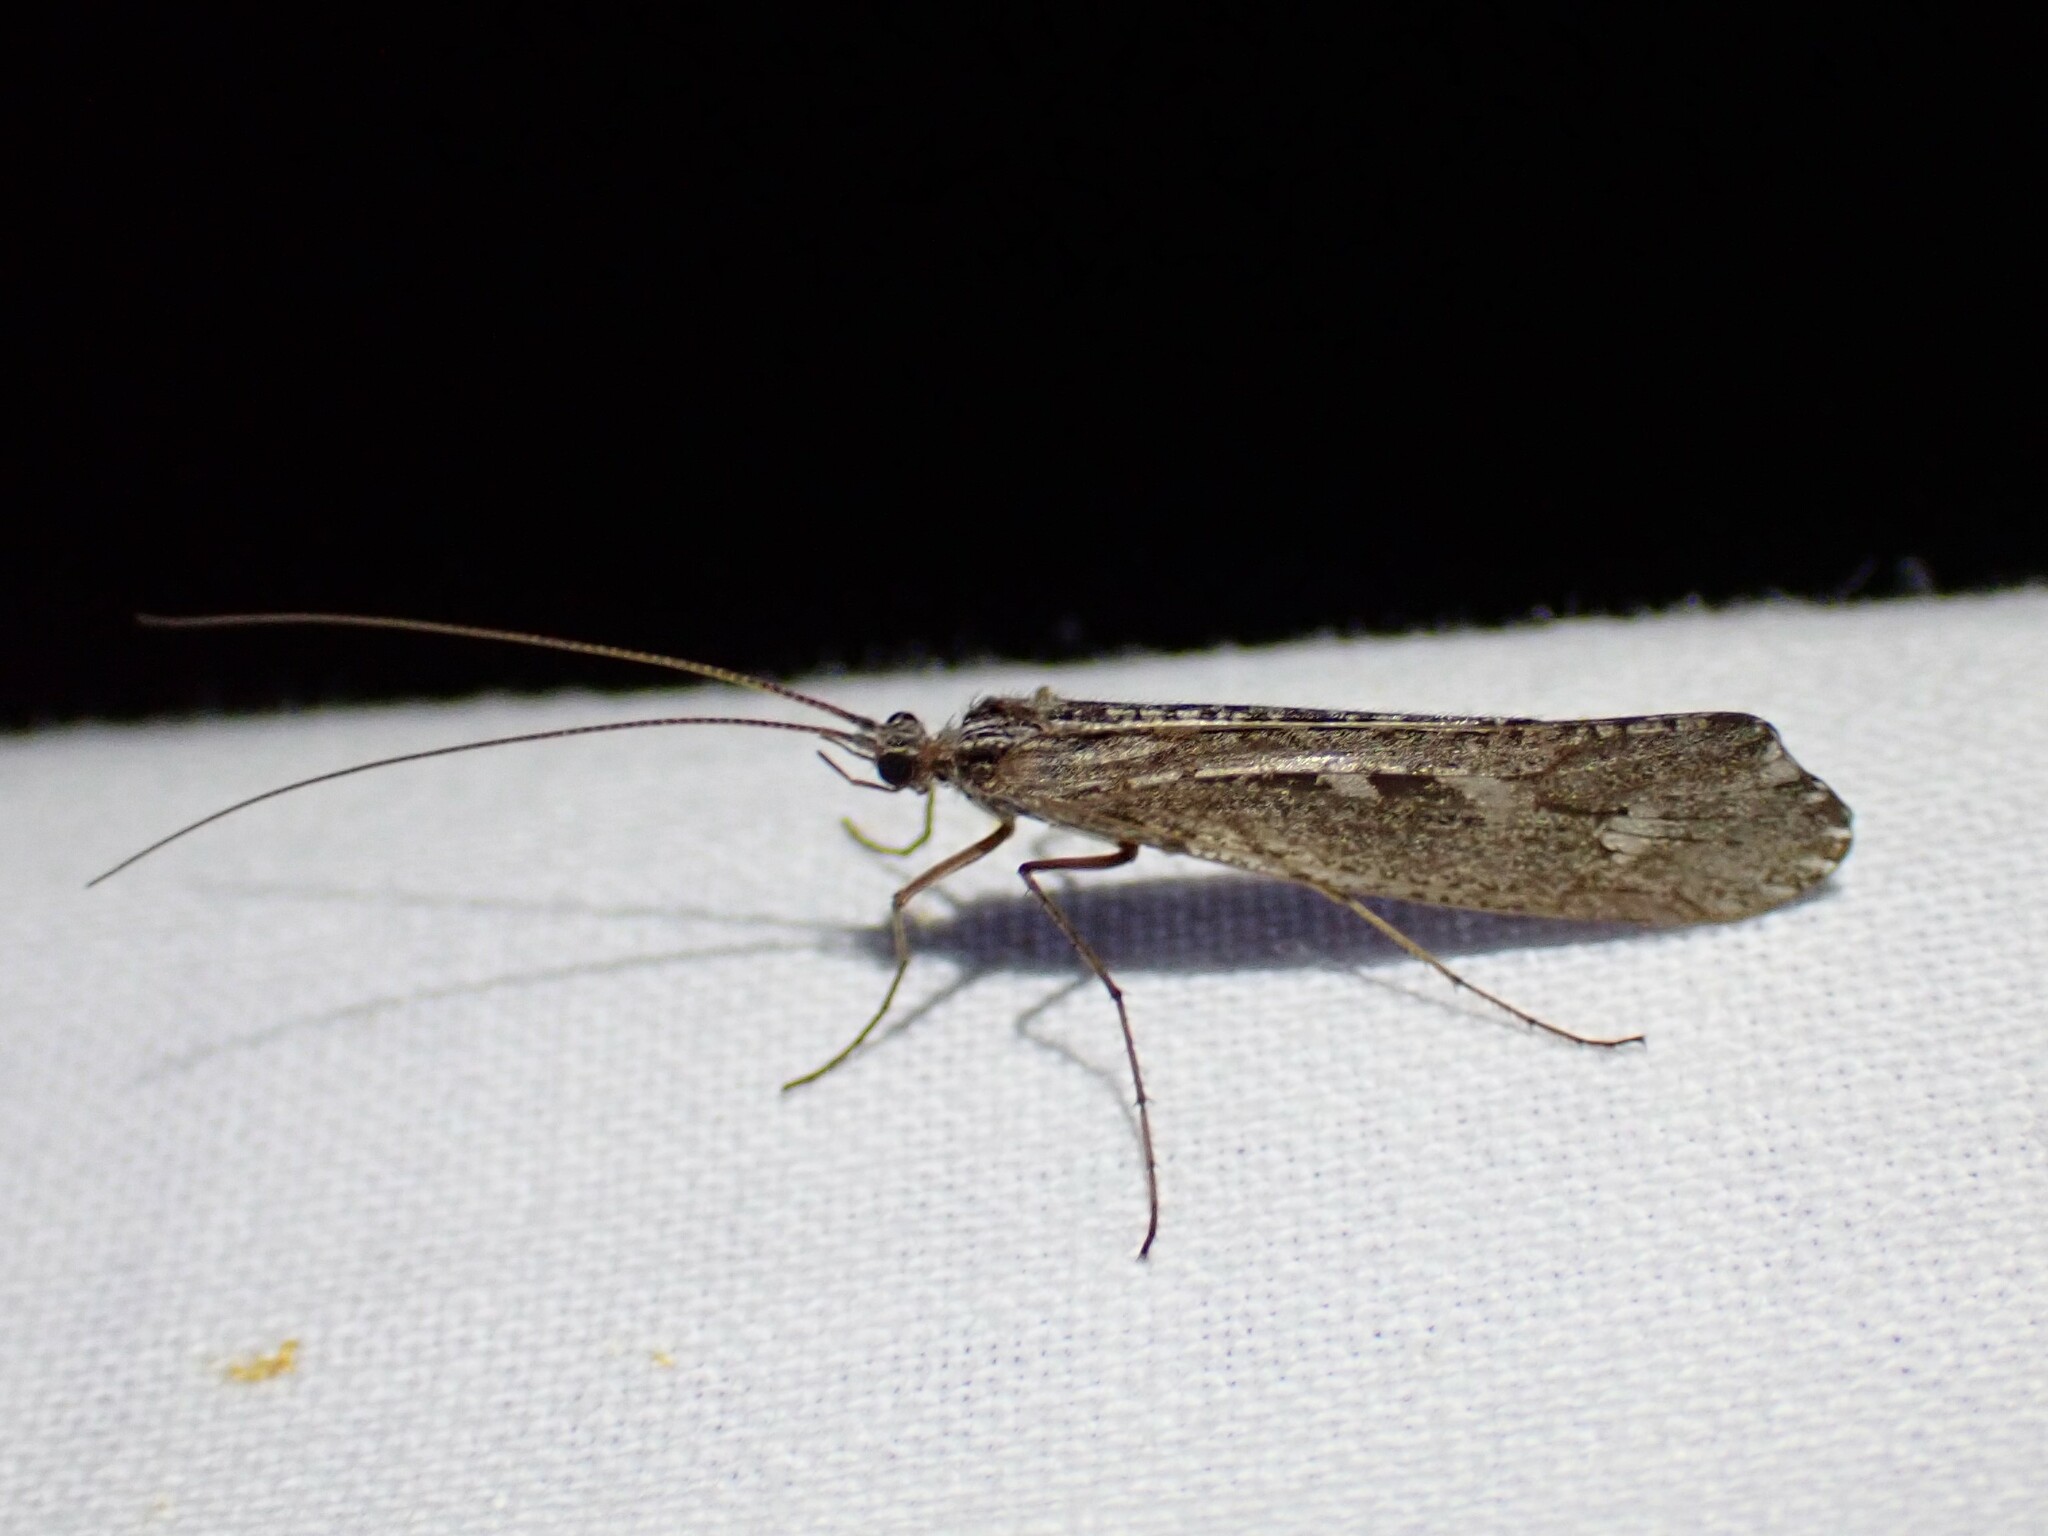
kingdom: Animalia
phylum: Arthropoda
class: Insecta
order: Trichoptera
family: Limnephilidae
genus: Glyphopsyche
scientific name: Glyphopsyche irrorata
